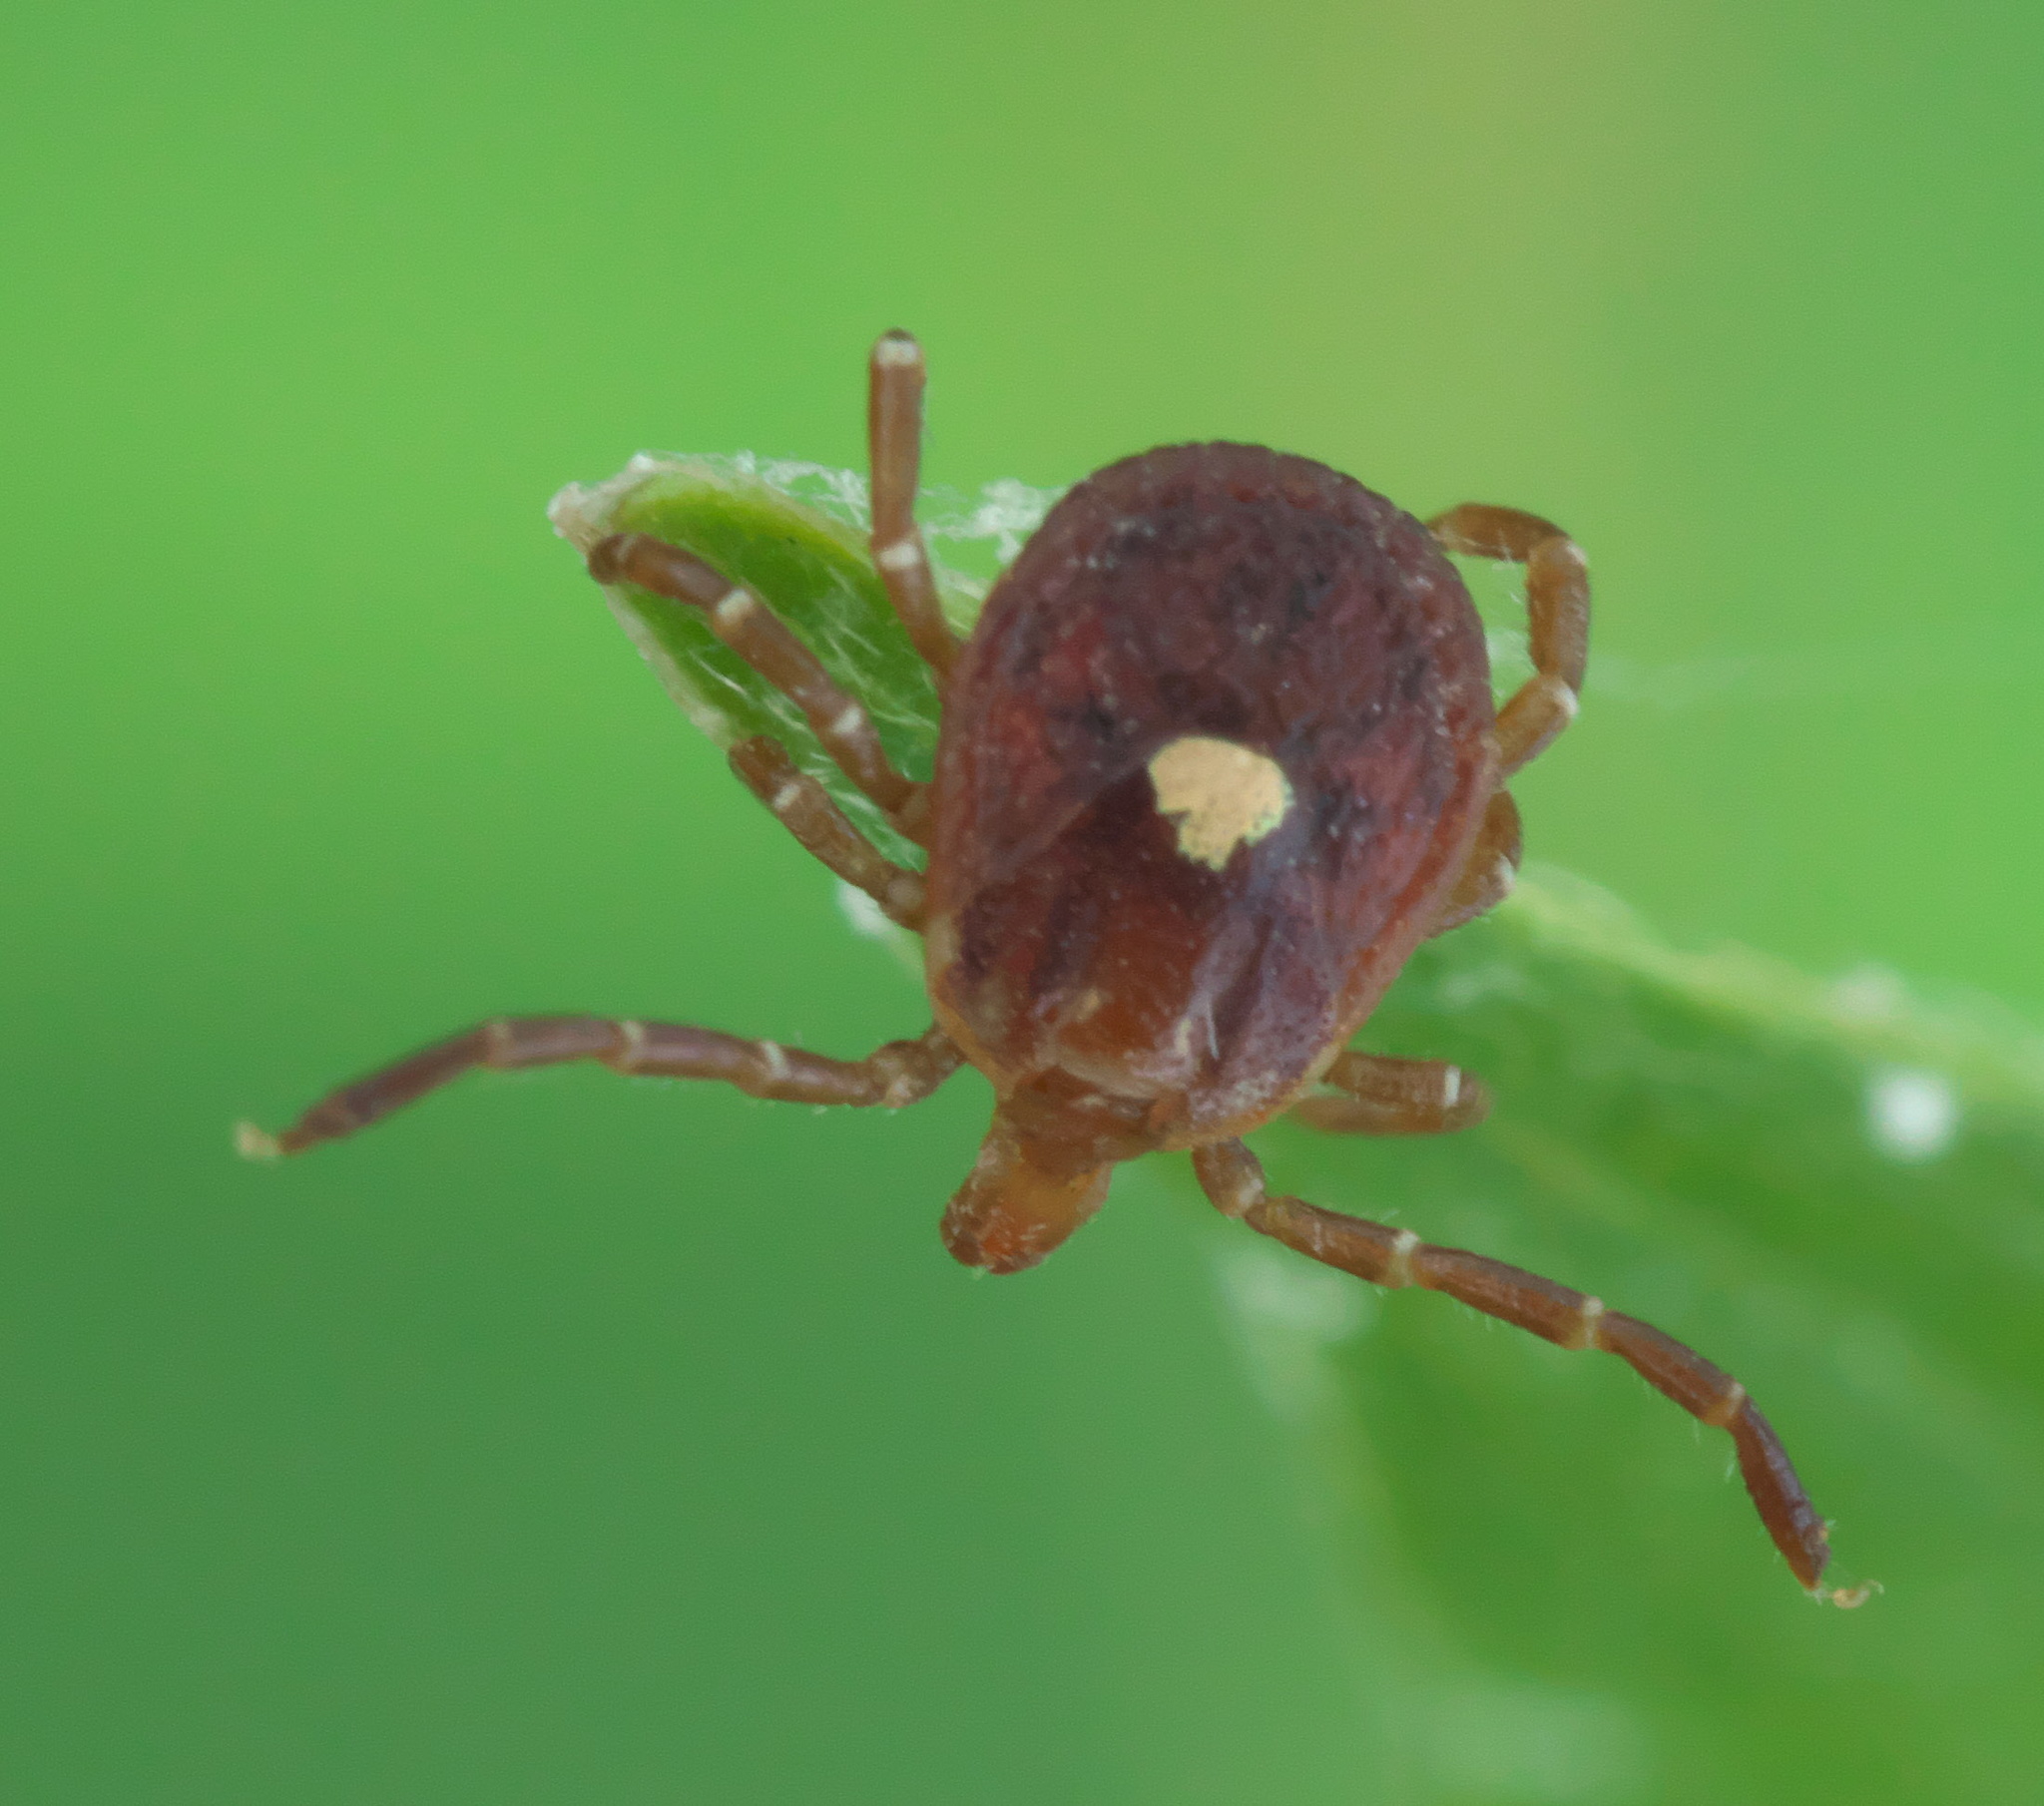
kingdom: Animalia
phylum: Arthropoda
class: Arachnida
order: Ixodida
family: Ixodidae
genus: Amblyomma
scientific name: Amblyomma americanum
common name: Lone star tick
